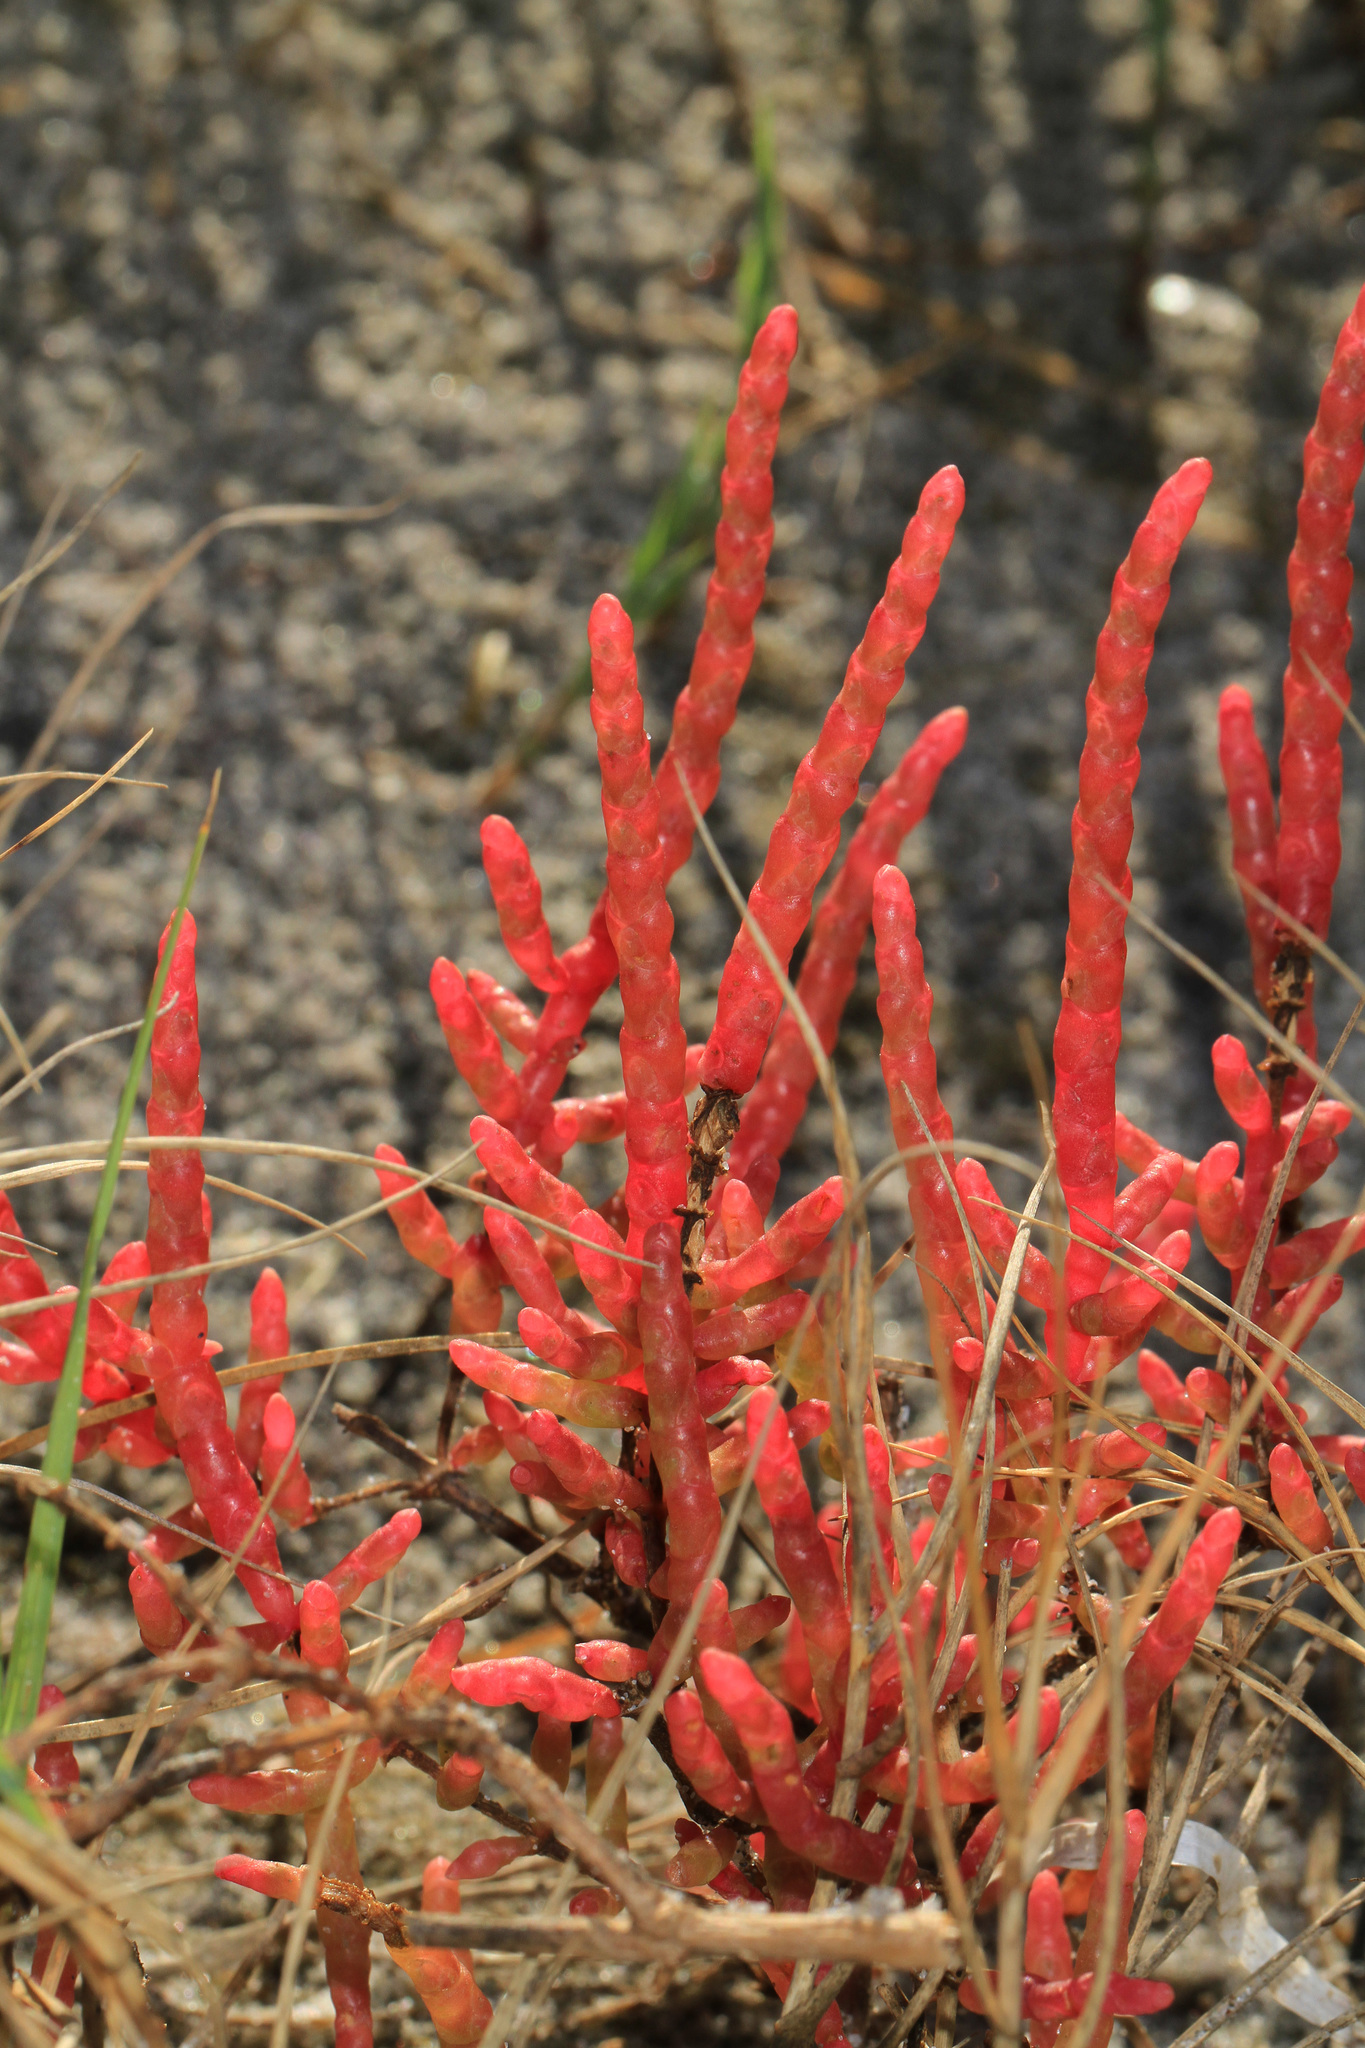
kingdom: Plantae
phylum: Tracheophyta
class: Magnoliopsida
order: Caryophyllales
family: Amaranthaceae
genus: Salicornia
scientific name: Salicornia virginica
